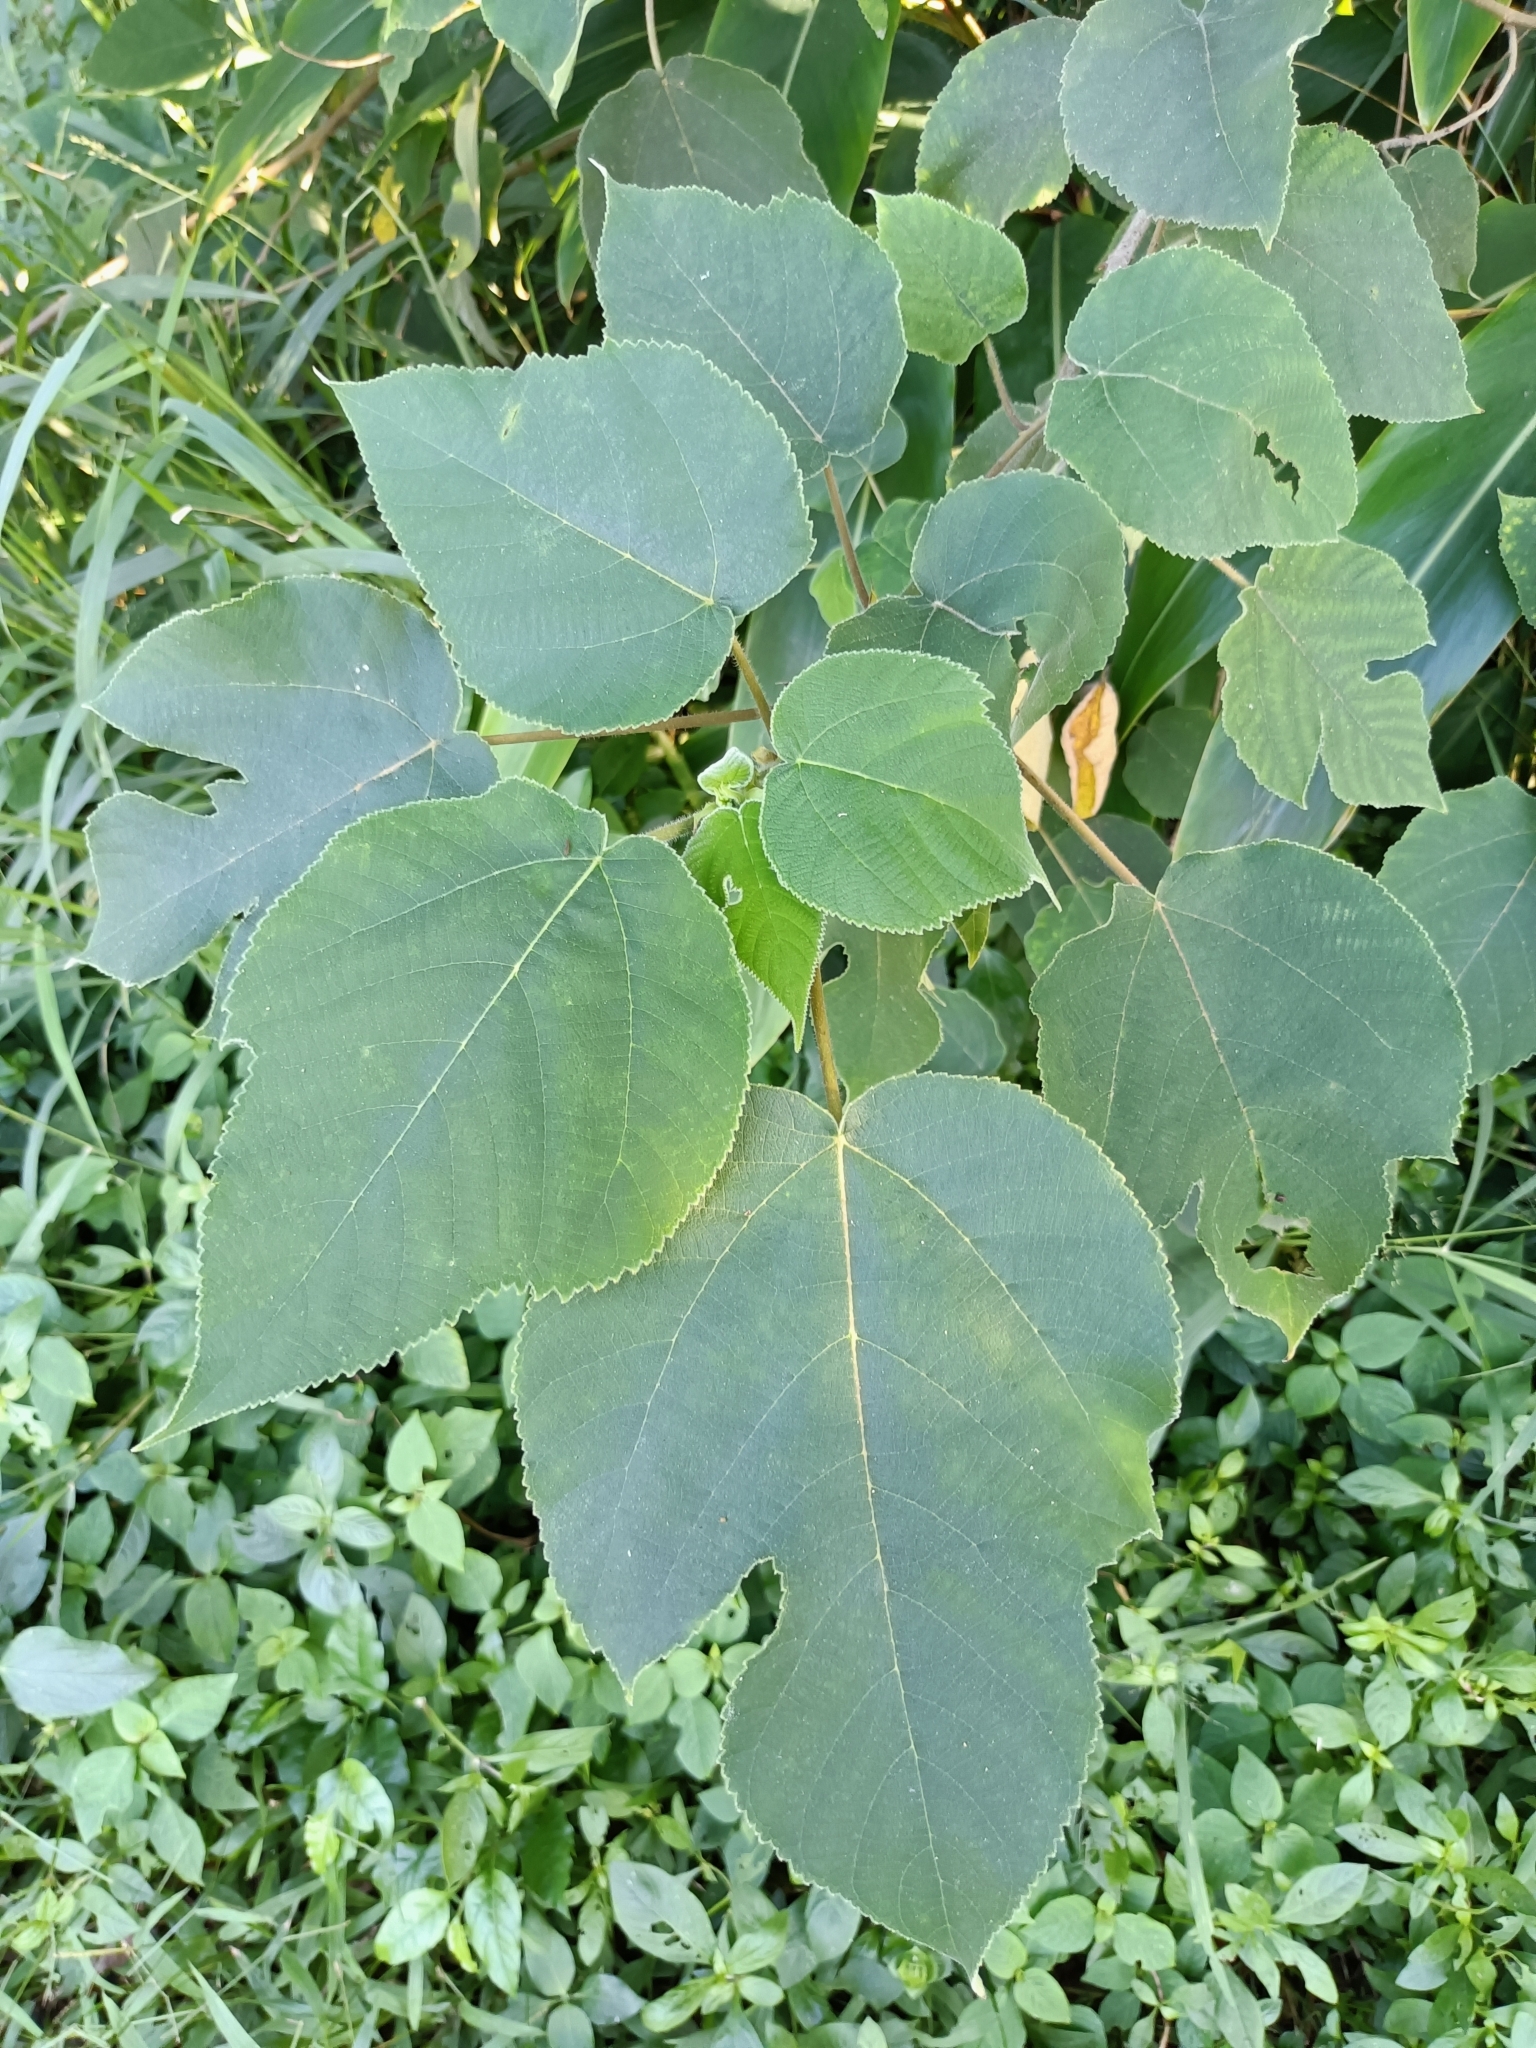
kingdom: Plantae
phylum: Tracheophyta
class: Magnoliopsida
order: Rosales
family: Moraceae
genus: Broussonetia
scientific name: Broussonetia papyrifera
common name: Paper mulberry
